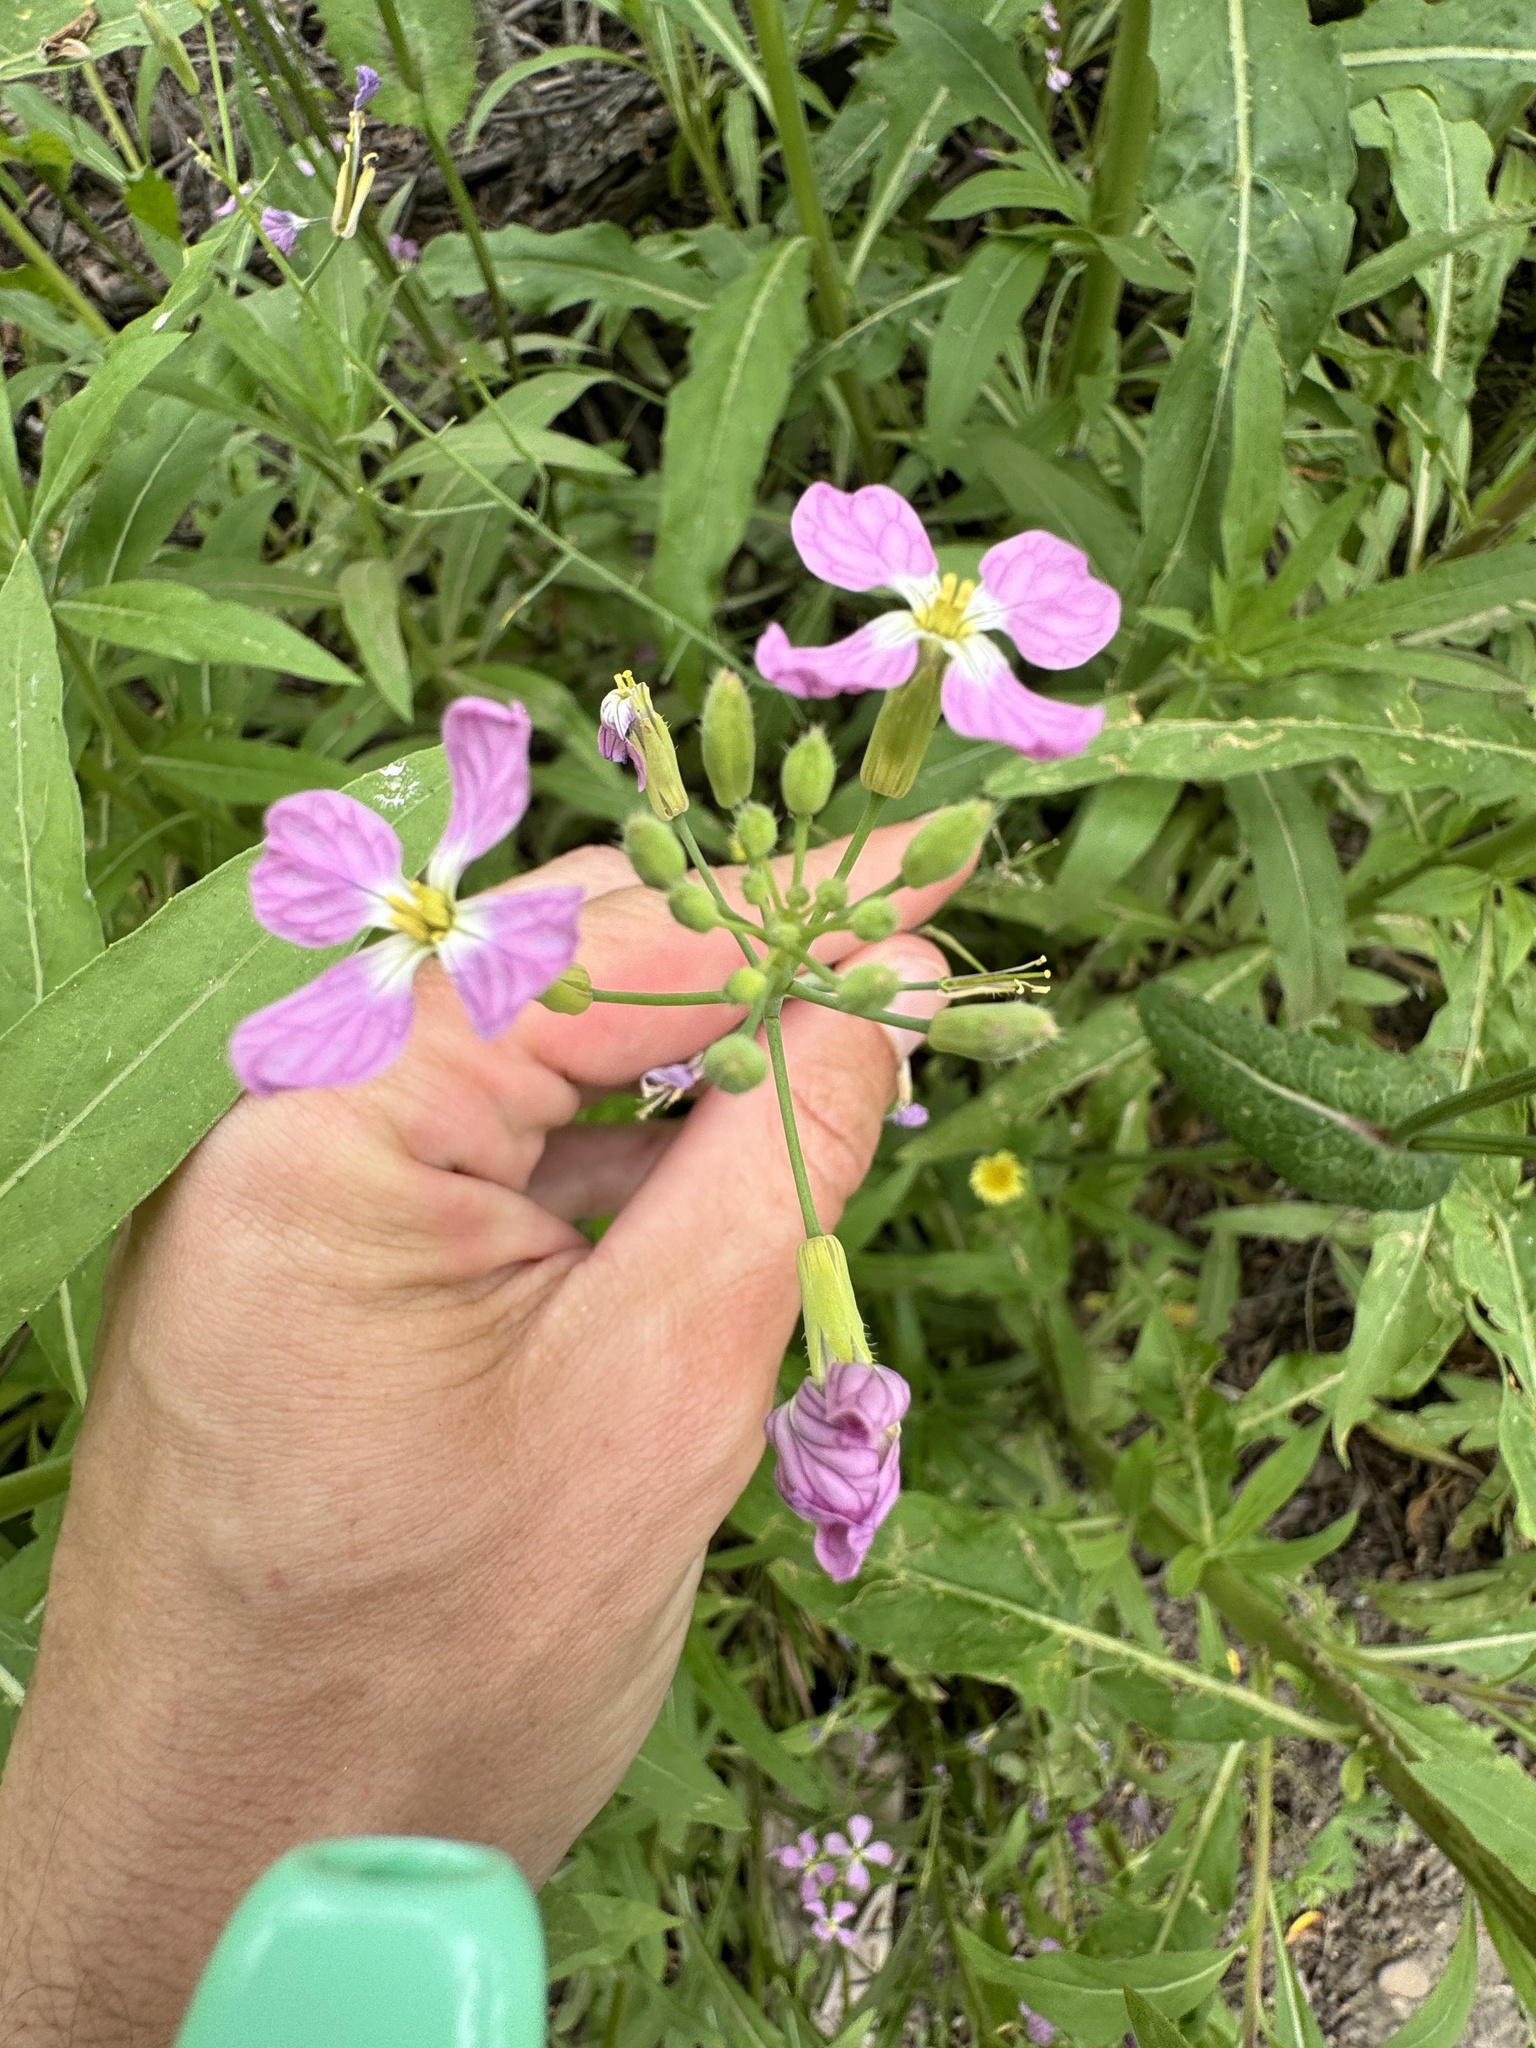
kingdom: Plantae
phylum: Tracheophyta
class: Magnoliopsida
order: Brassicales
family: Brassicaceae
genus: Raphanus
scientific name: Raphanus sativus
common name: Cultivated radish
